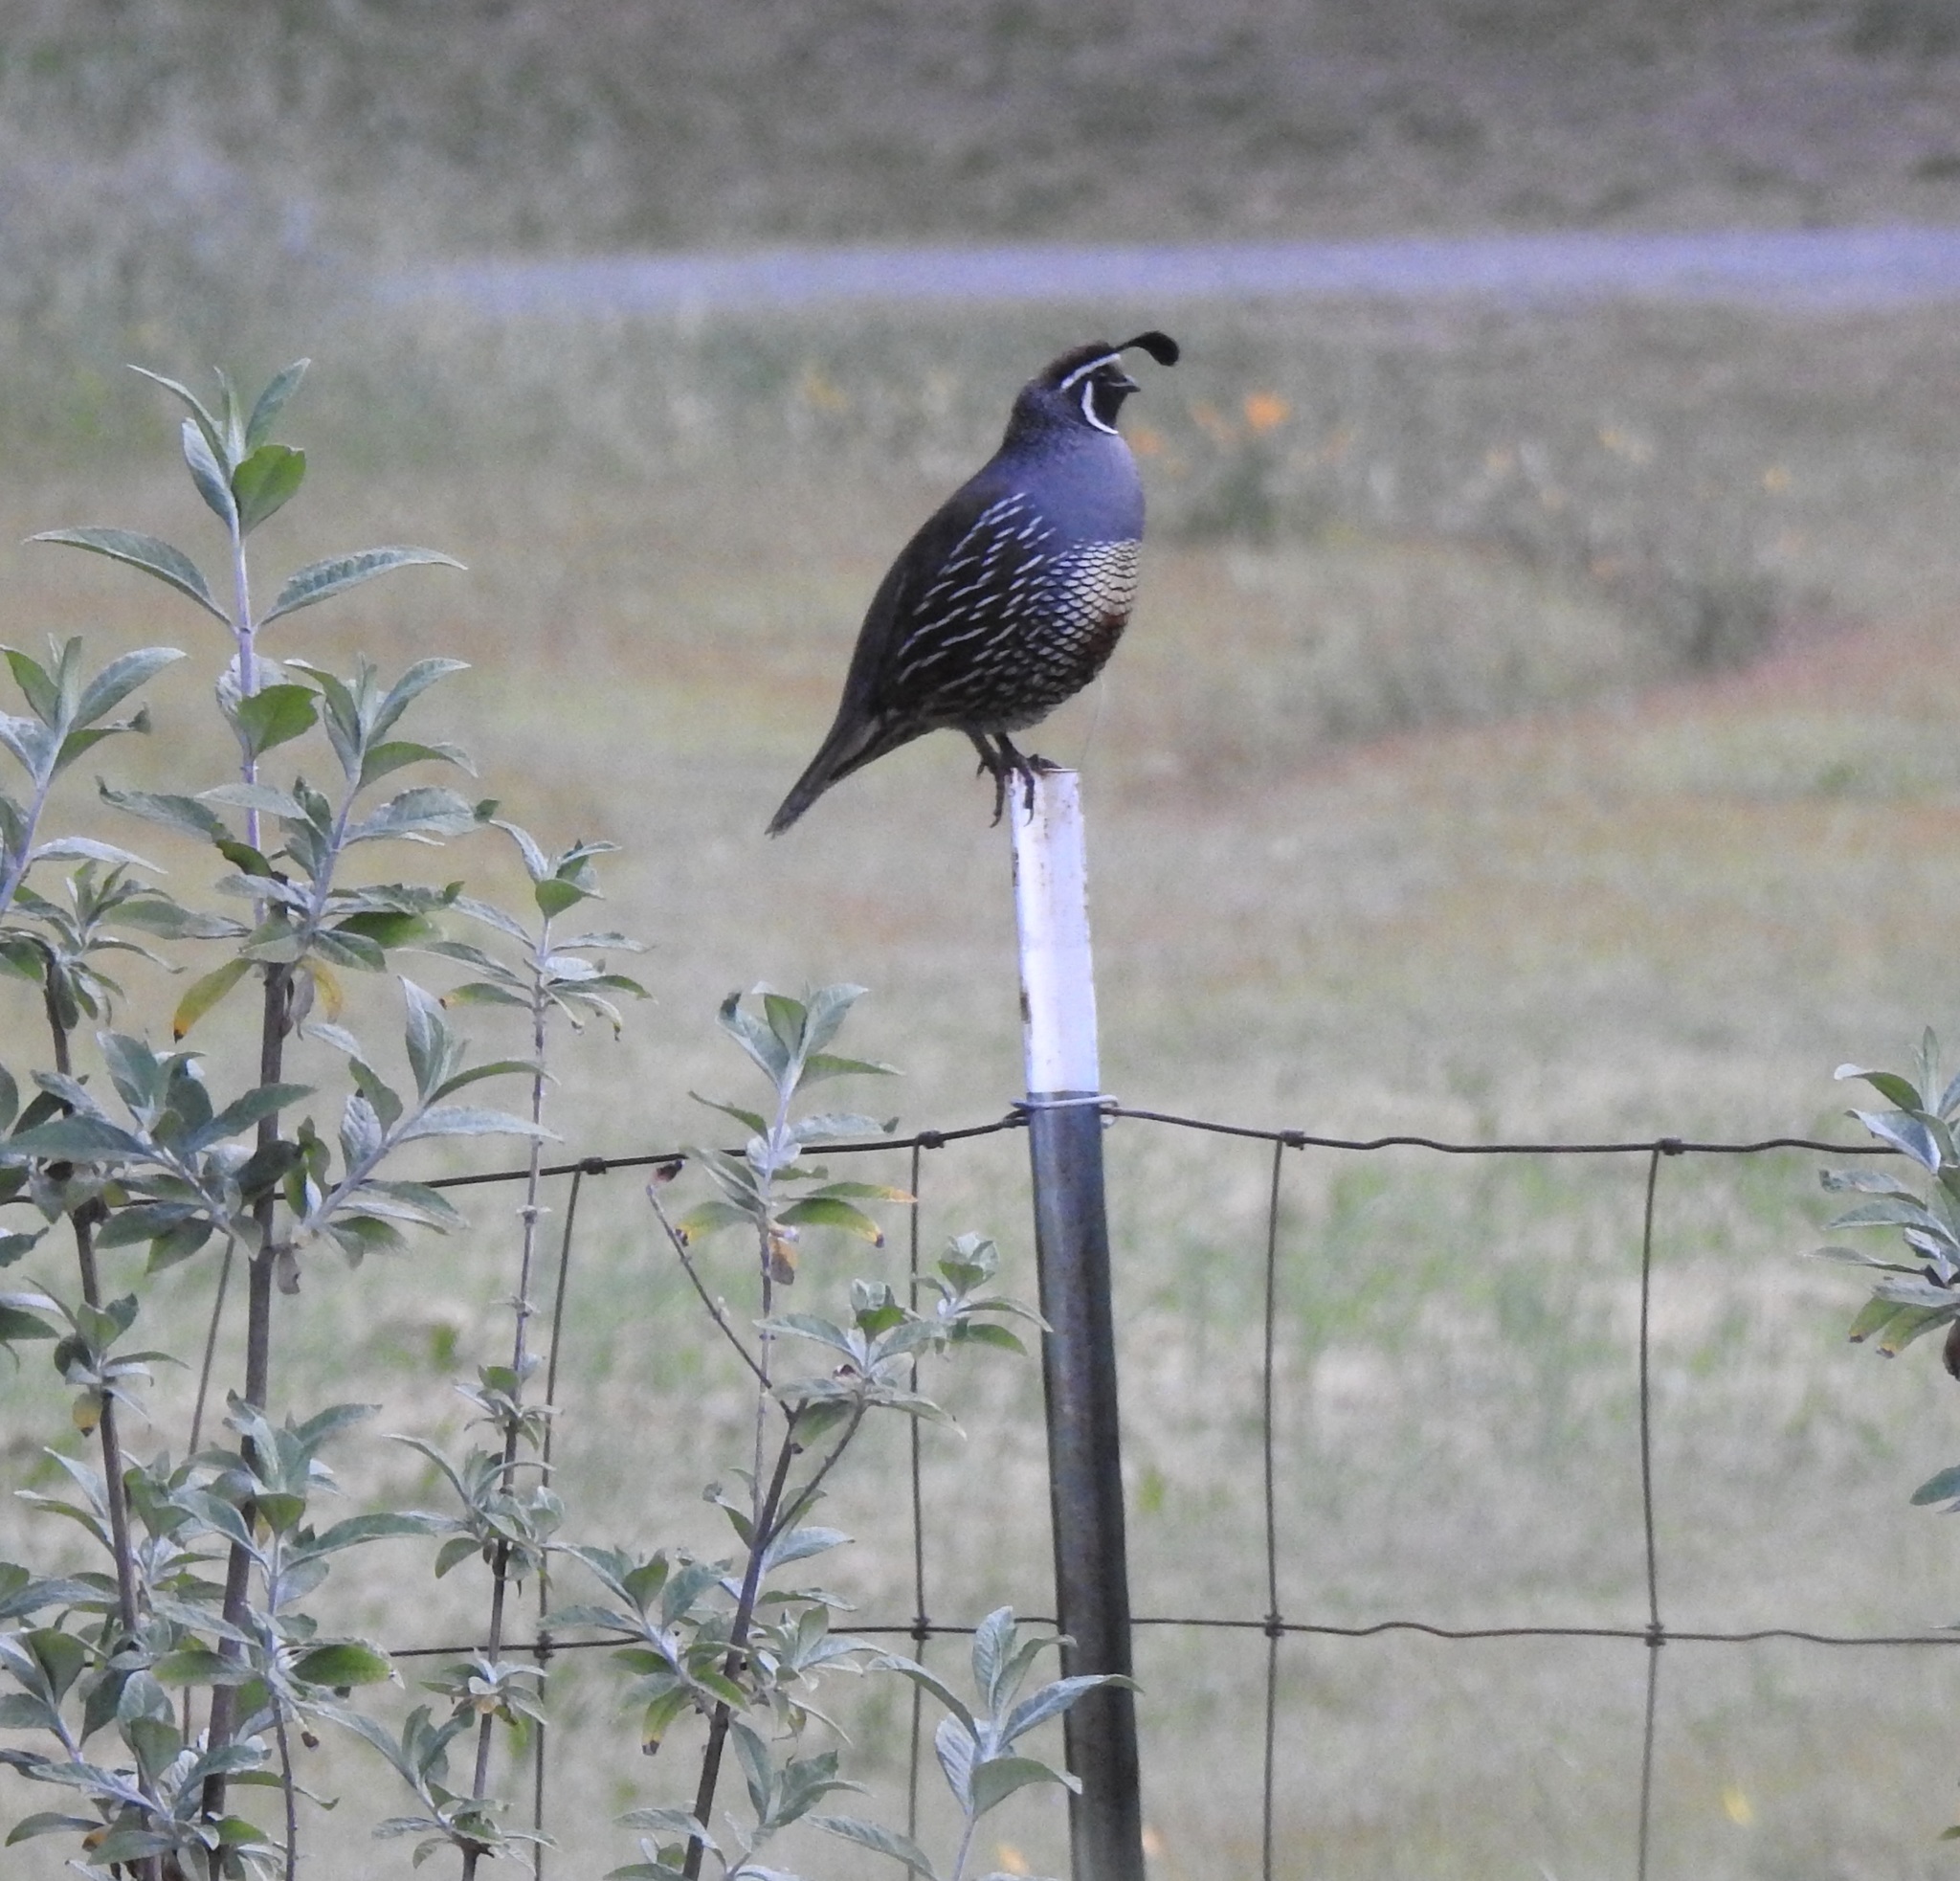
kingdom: Animalia
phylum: Chordata
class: Aves
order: Galliformes
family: Odontophoridae
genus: Callipepla
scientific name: Callipepla californica
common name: California quail
